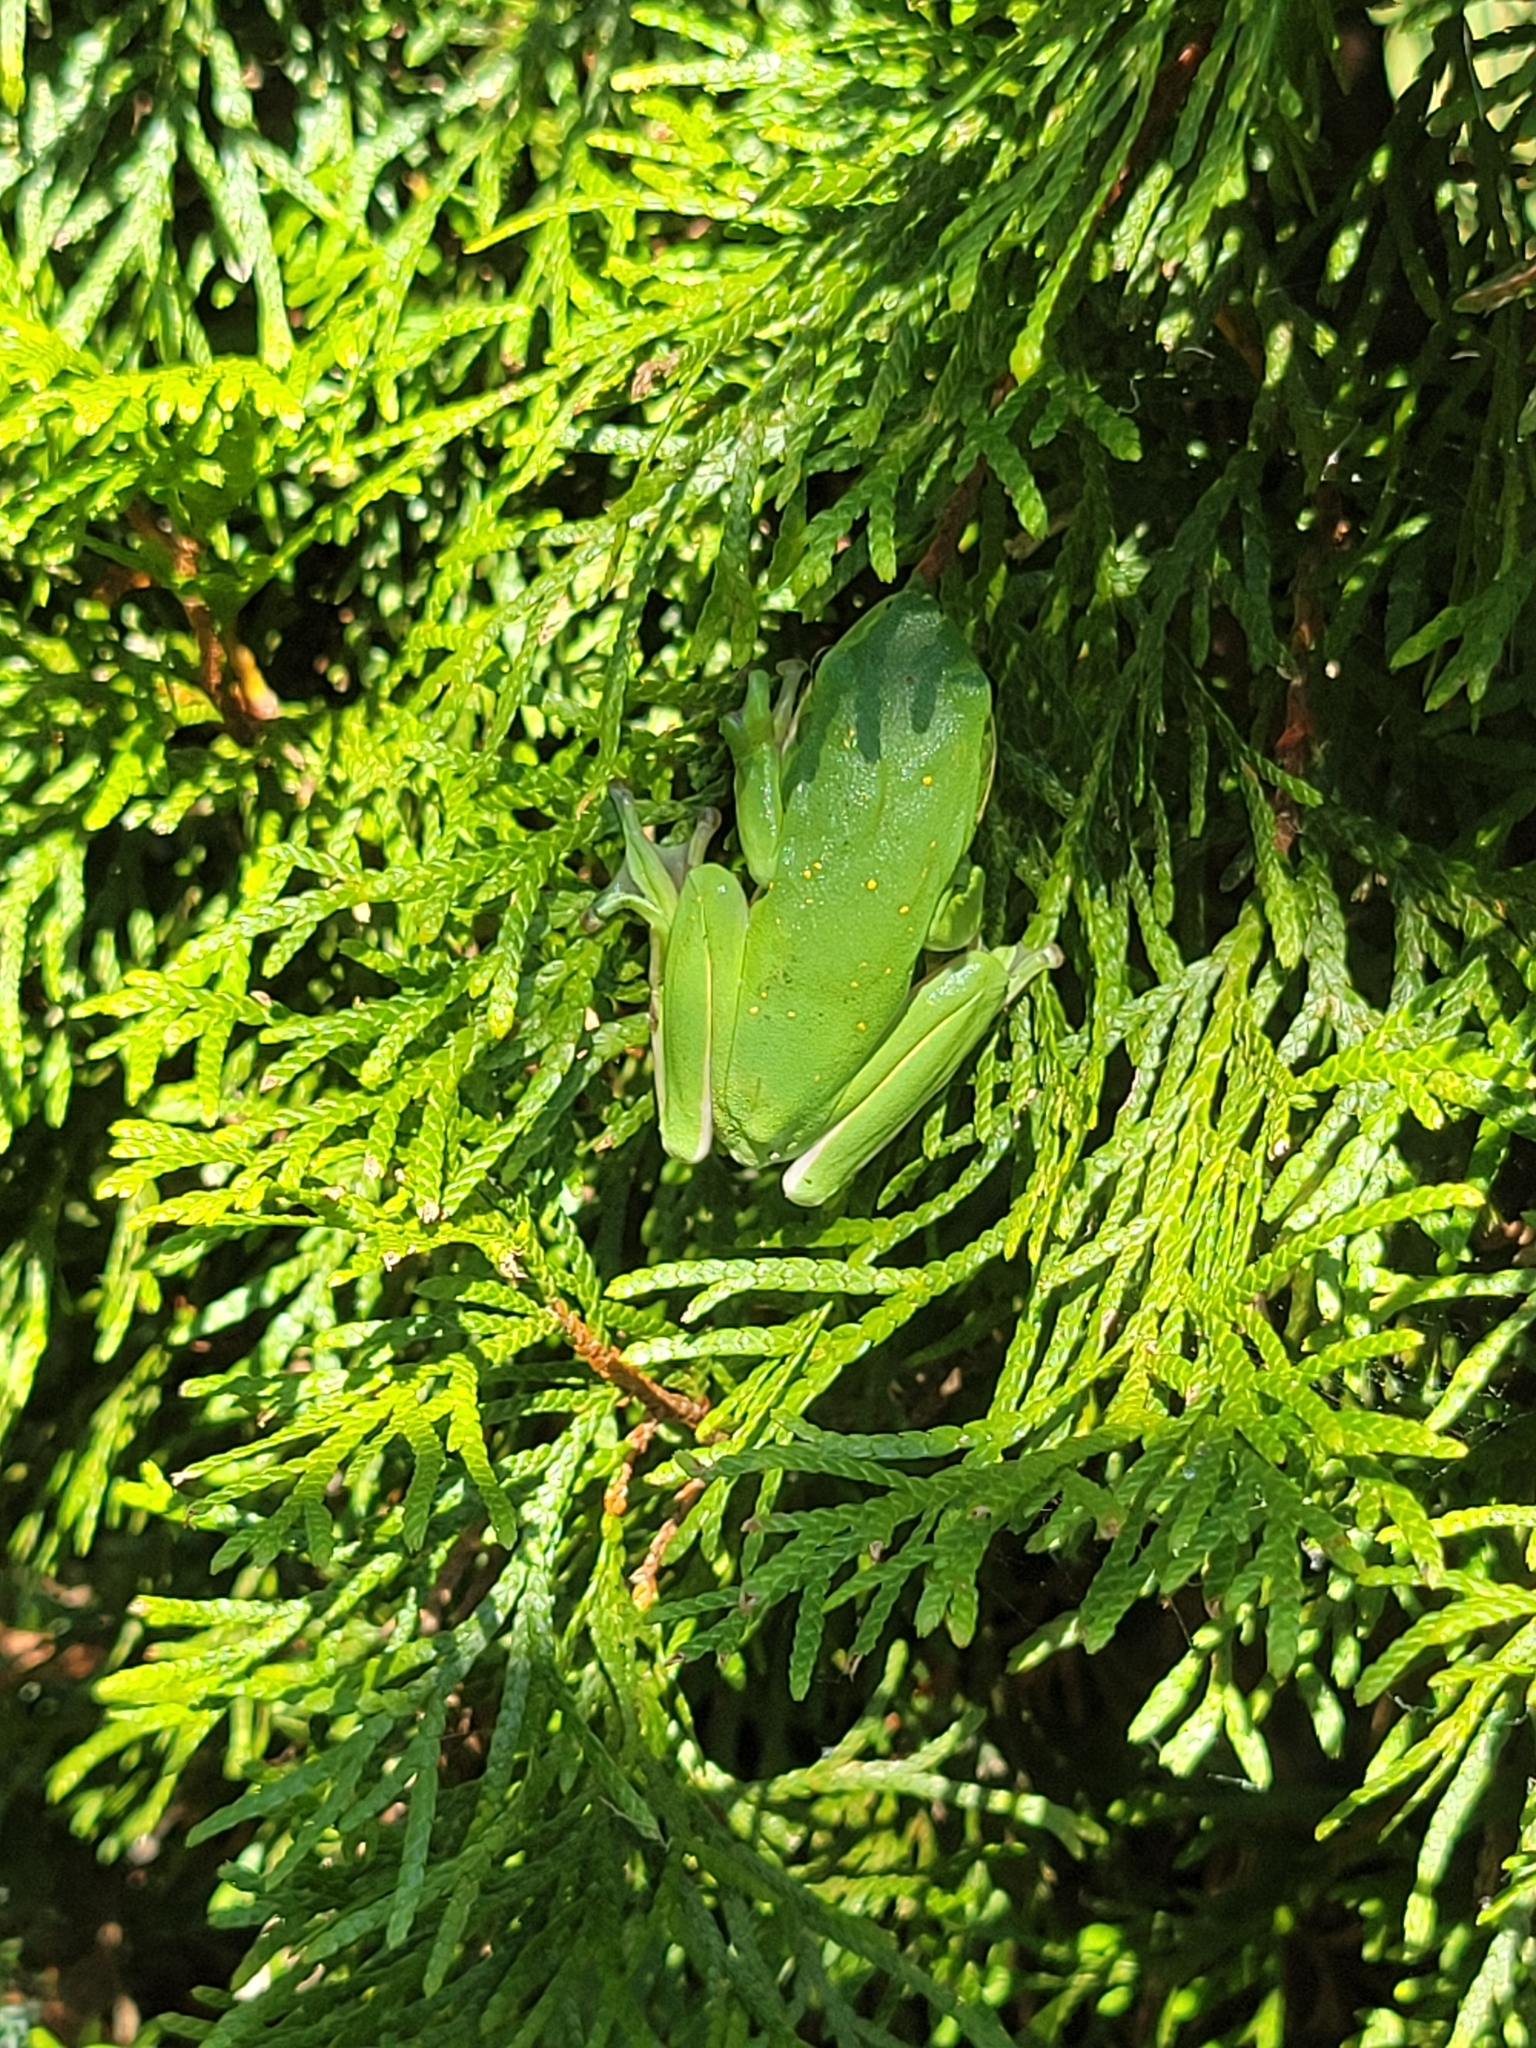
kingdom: Animalia
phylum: Chordata
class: Amphibia
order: Anura
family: Hylidae
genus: Dryophytes
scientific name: Dryophytes cinereus
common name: Green treefrog
